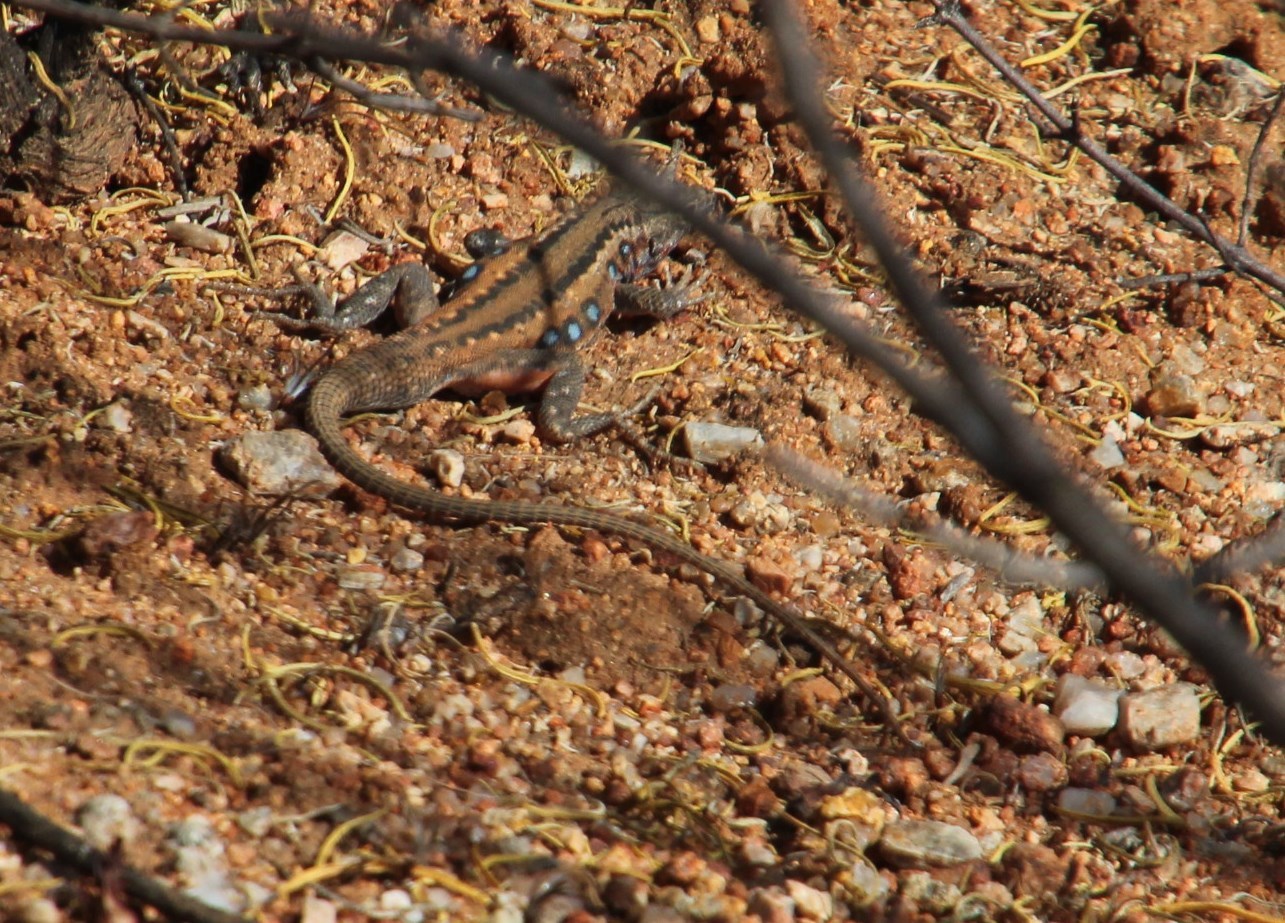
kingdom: Animalia
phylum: Chordata
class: Squamata
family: Lacertidae
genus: Pedioplanis
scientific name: Pedioplanis lineoocellata
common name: Spotted sand lizard
